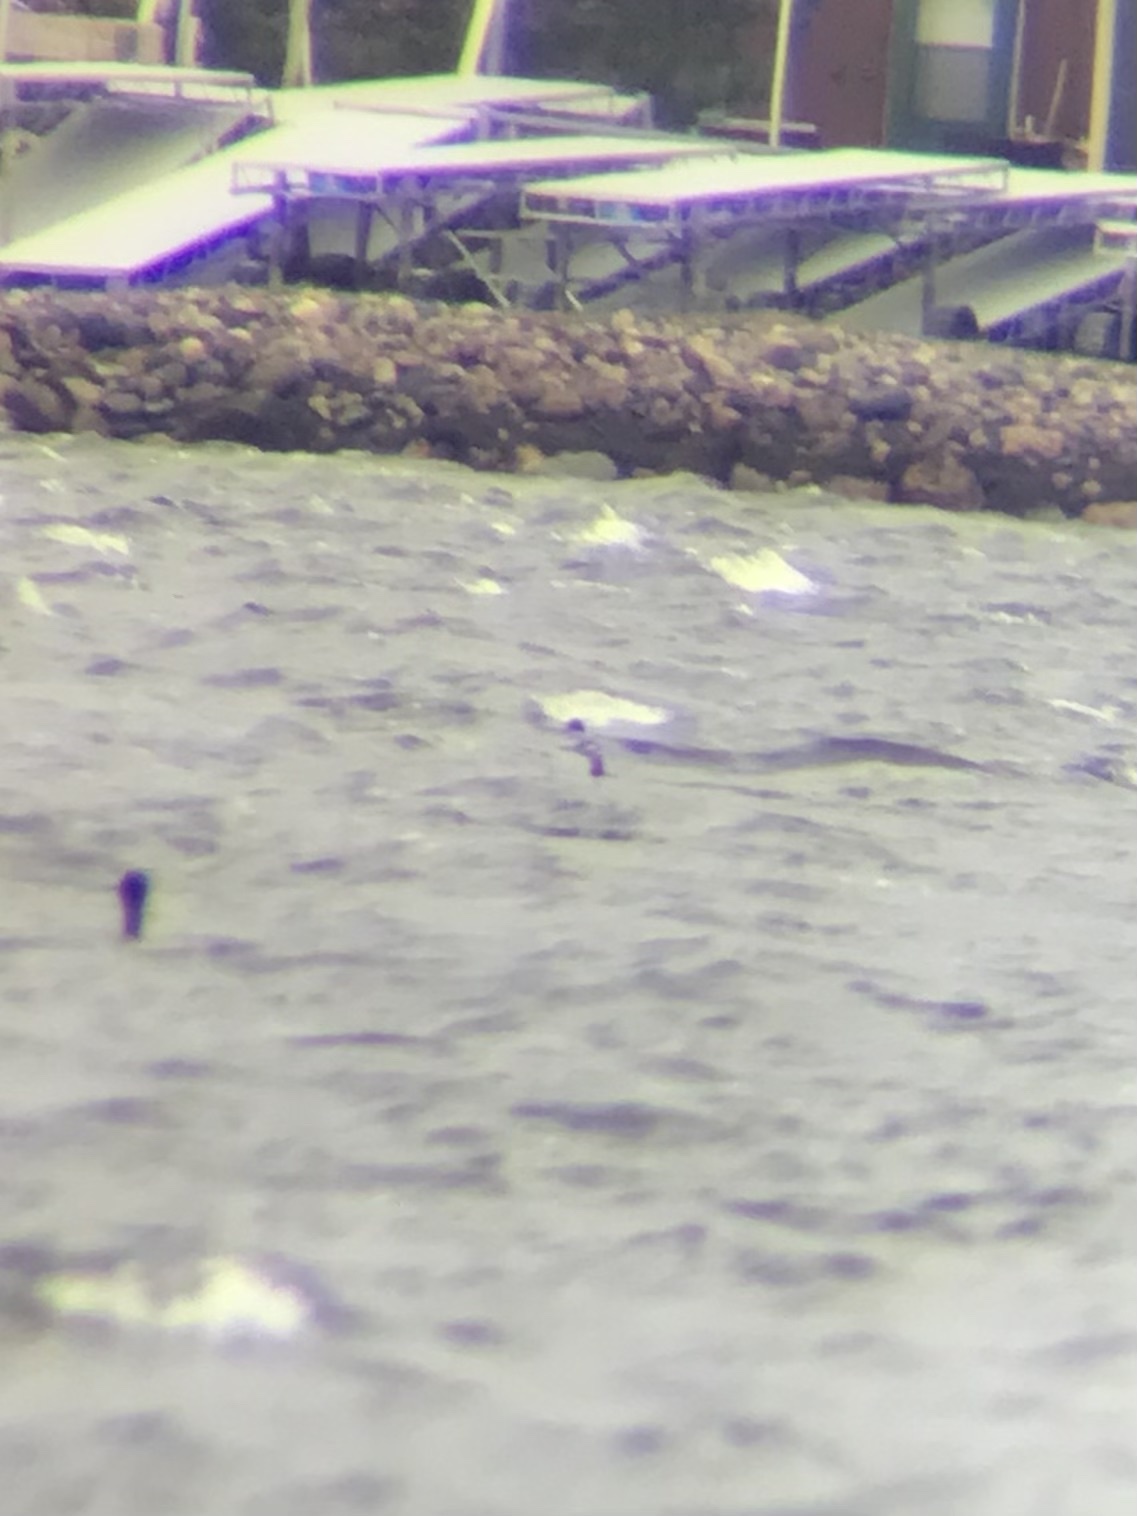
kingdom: Animalia
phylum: Chordata
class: Aves
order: Podicipediformes
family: Podicipedidae
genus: Podiceps
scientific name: Podiceps grisegena
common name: Red-necked grebe
